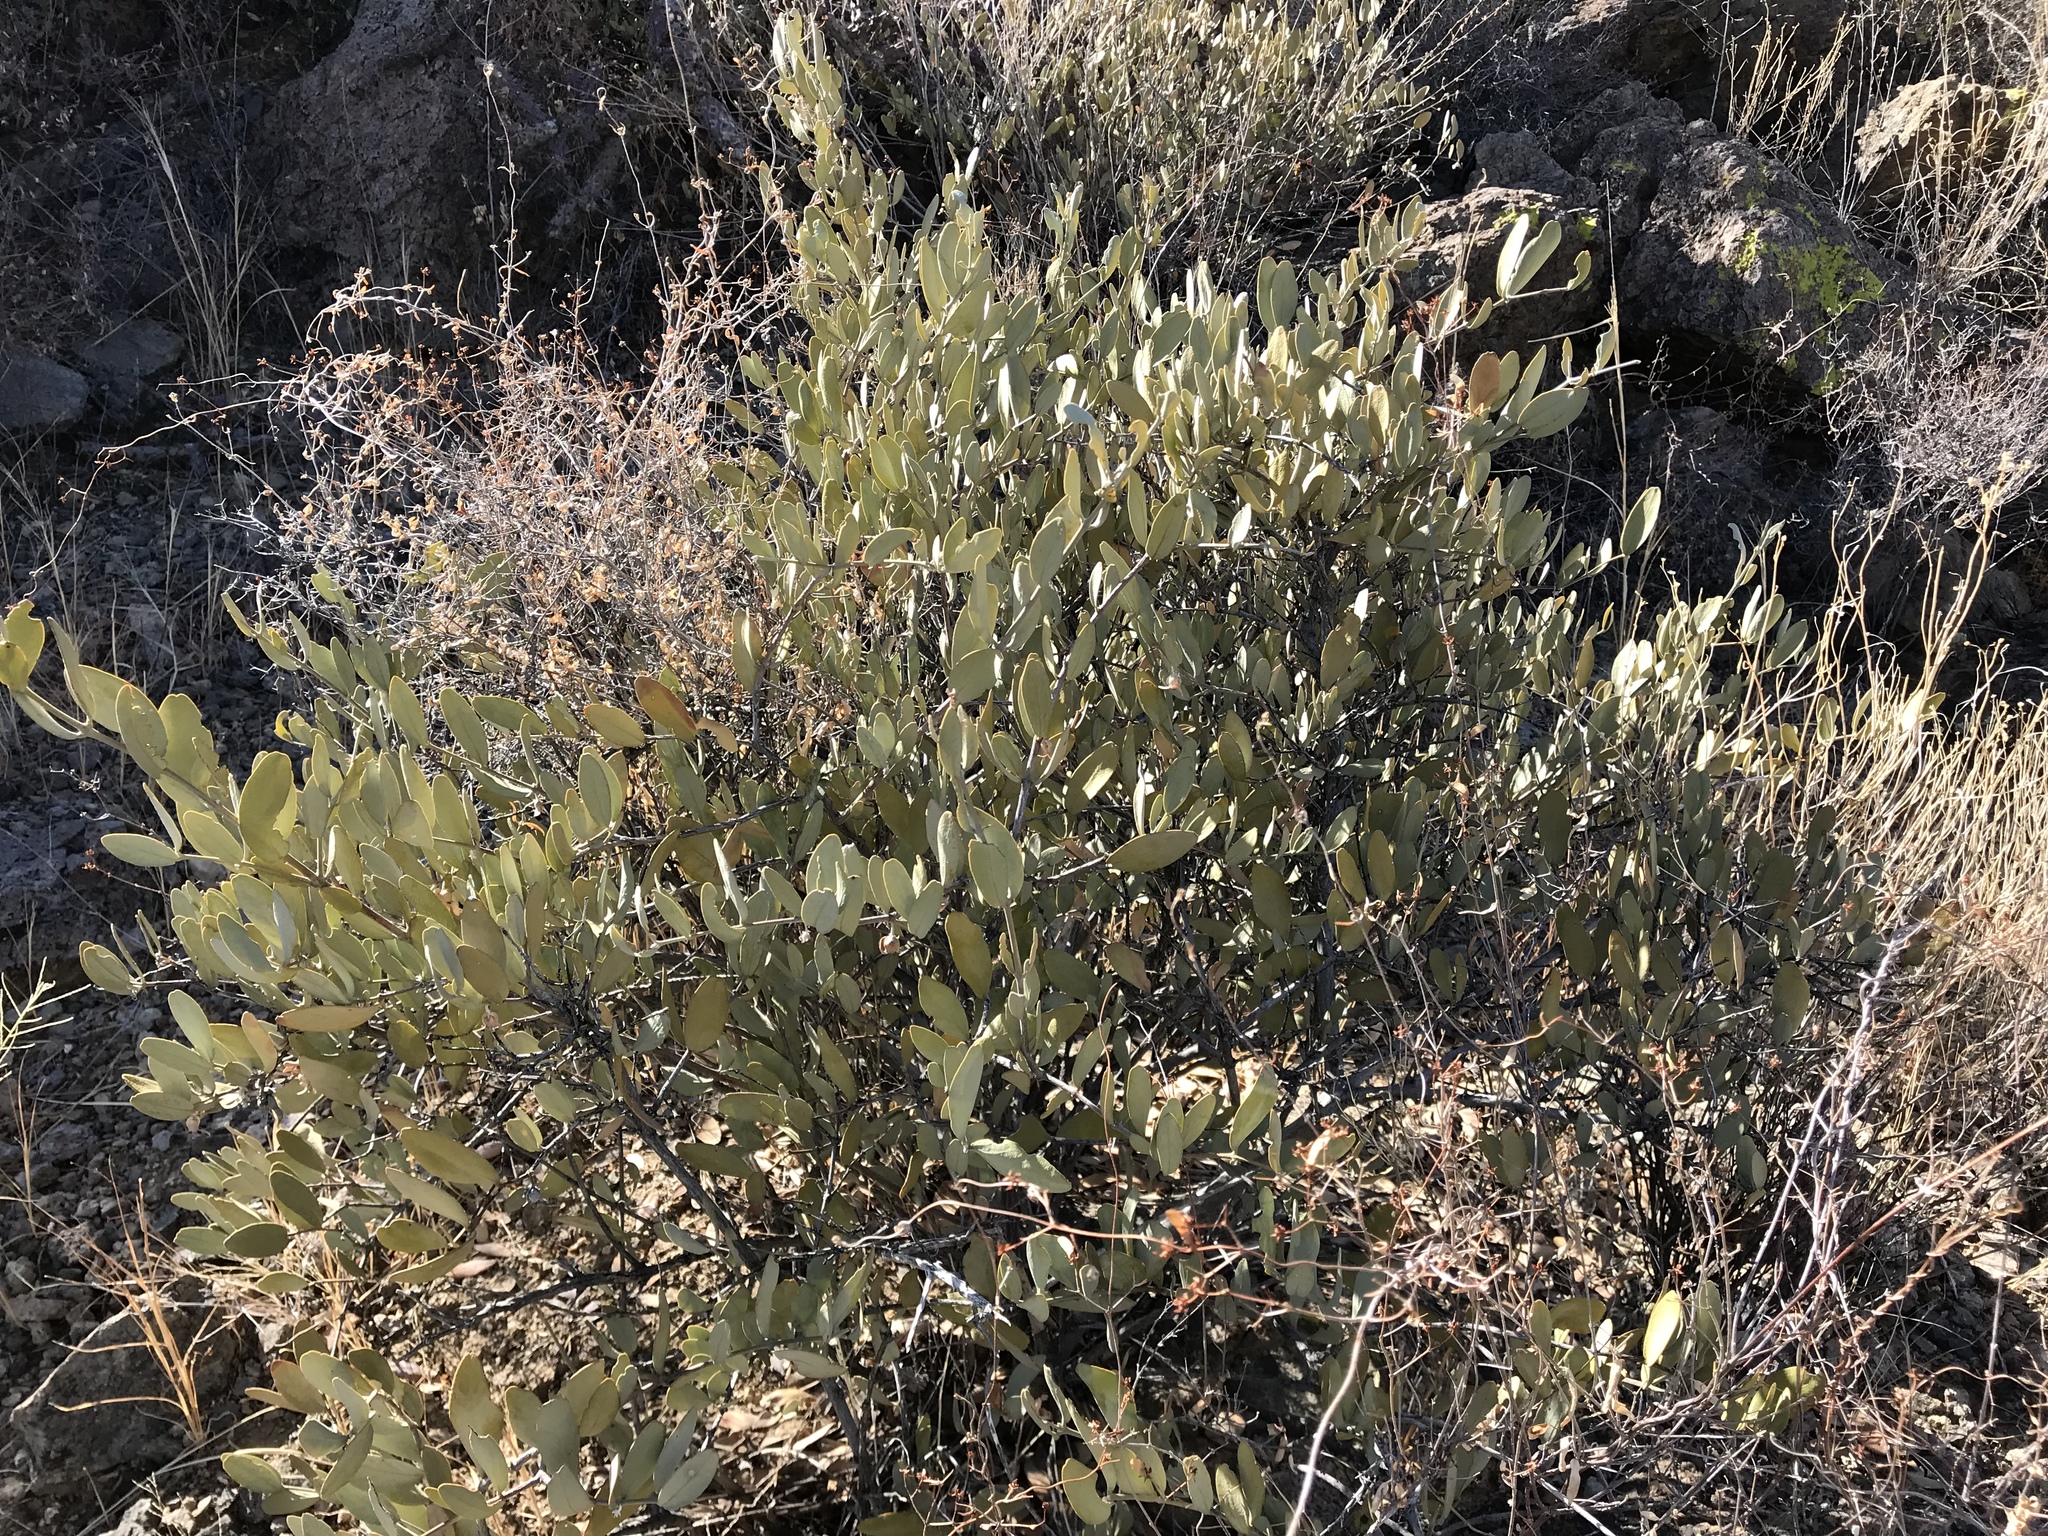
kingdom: Plantae
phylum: Tracheophyta
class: Magnoliopsida
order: Caryophyllales
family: Simmondsiaceae
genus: Simmondsia
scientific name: Simmondsia chinensis
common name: Jojoba
